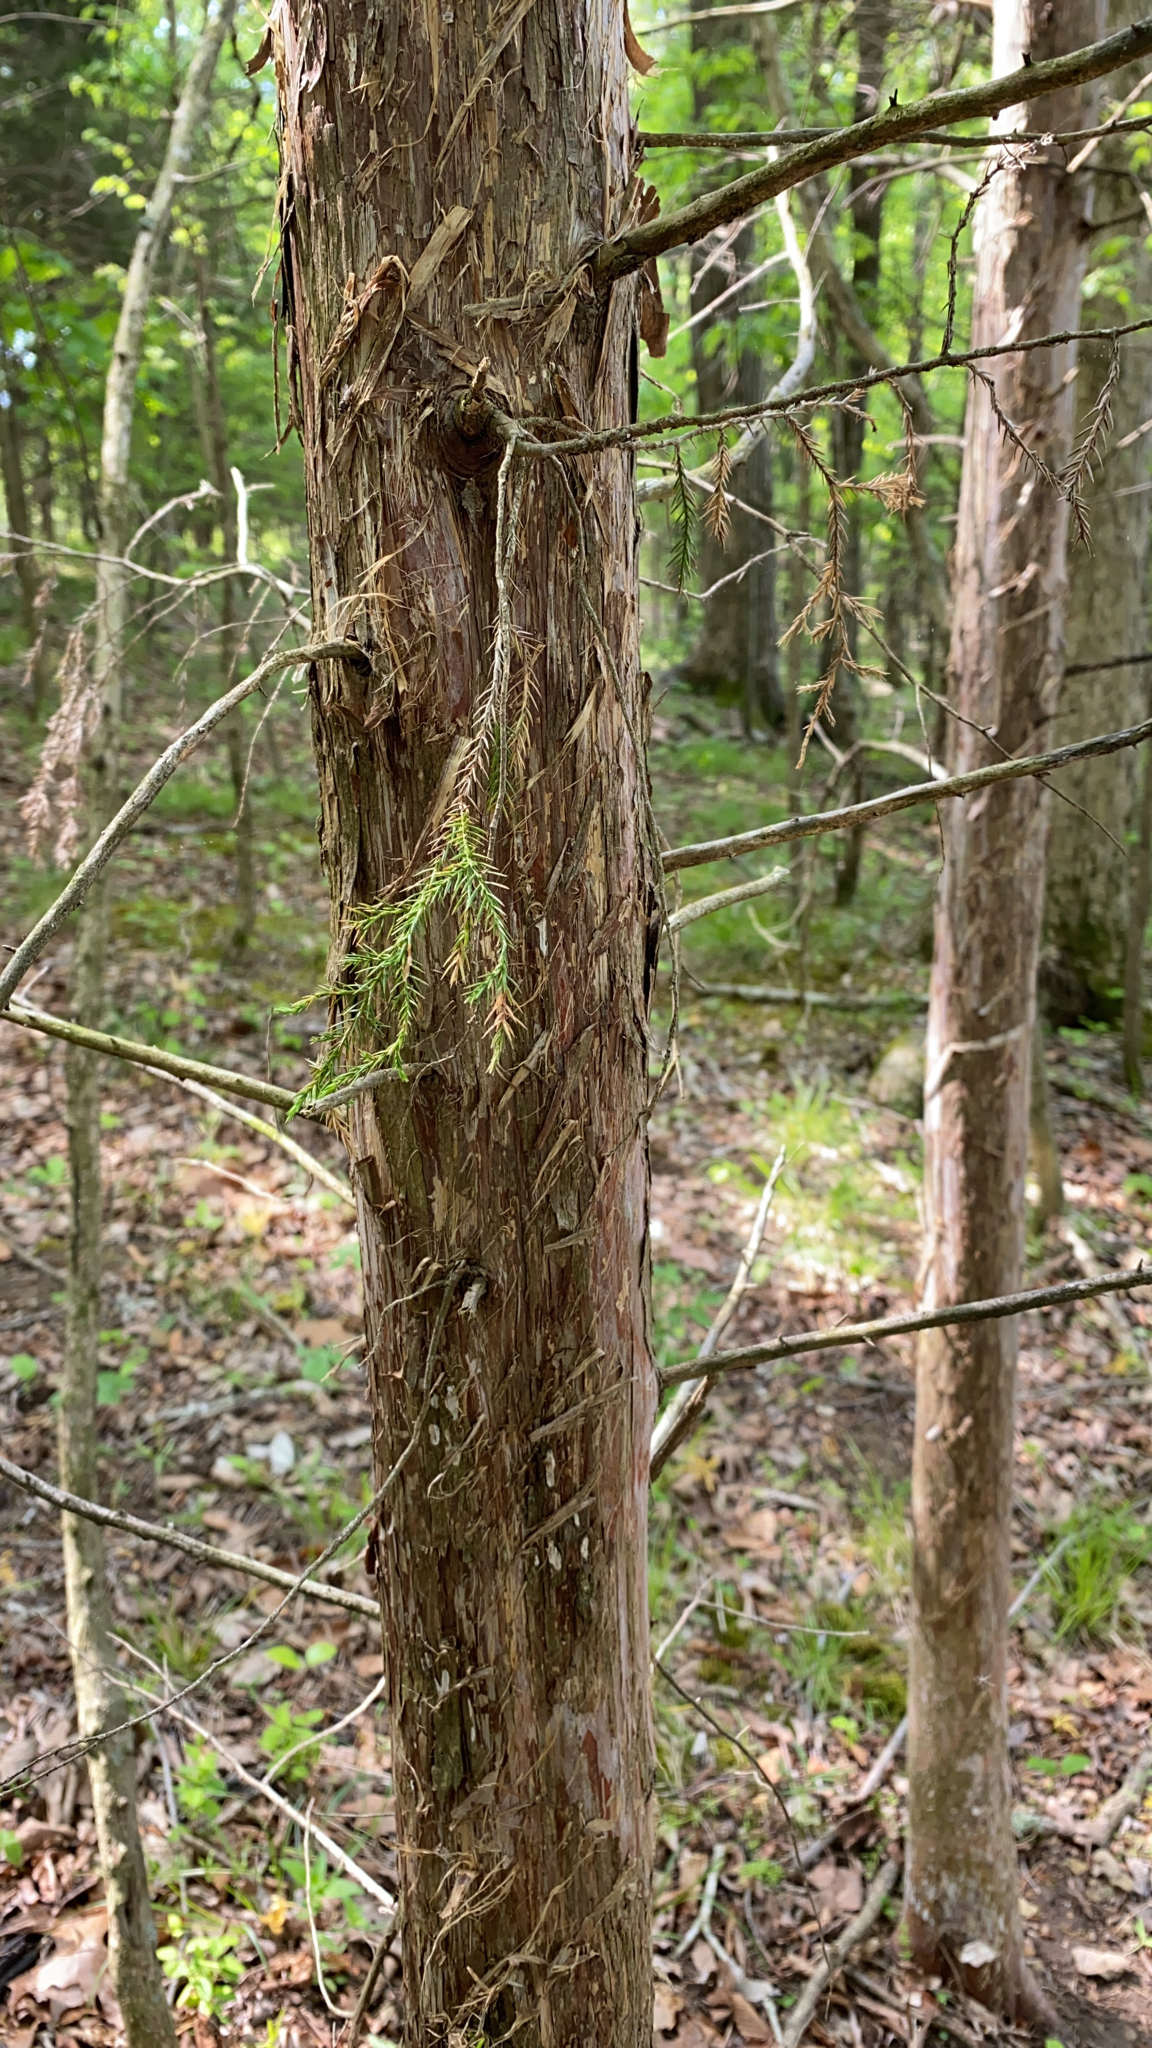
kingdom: Plantae
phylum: Tracheophyta
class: Pinopsida
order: Pinales
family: Cupressaceae
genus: Juniperus
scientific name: Juniperus virginiana
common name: Red juniper
